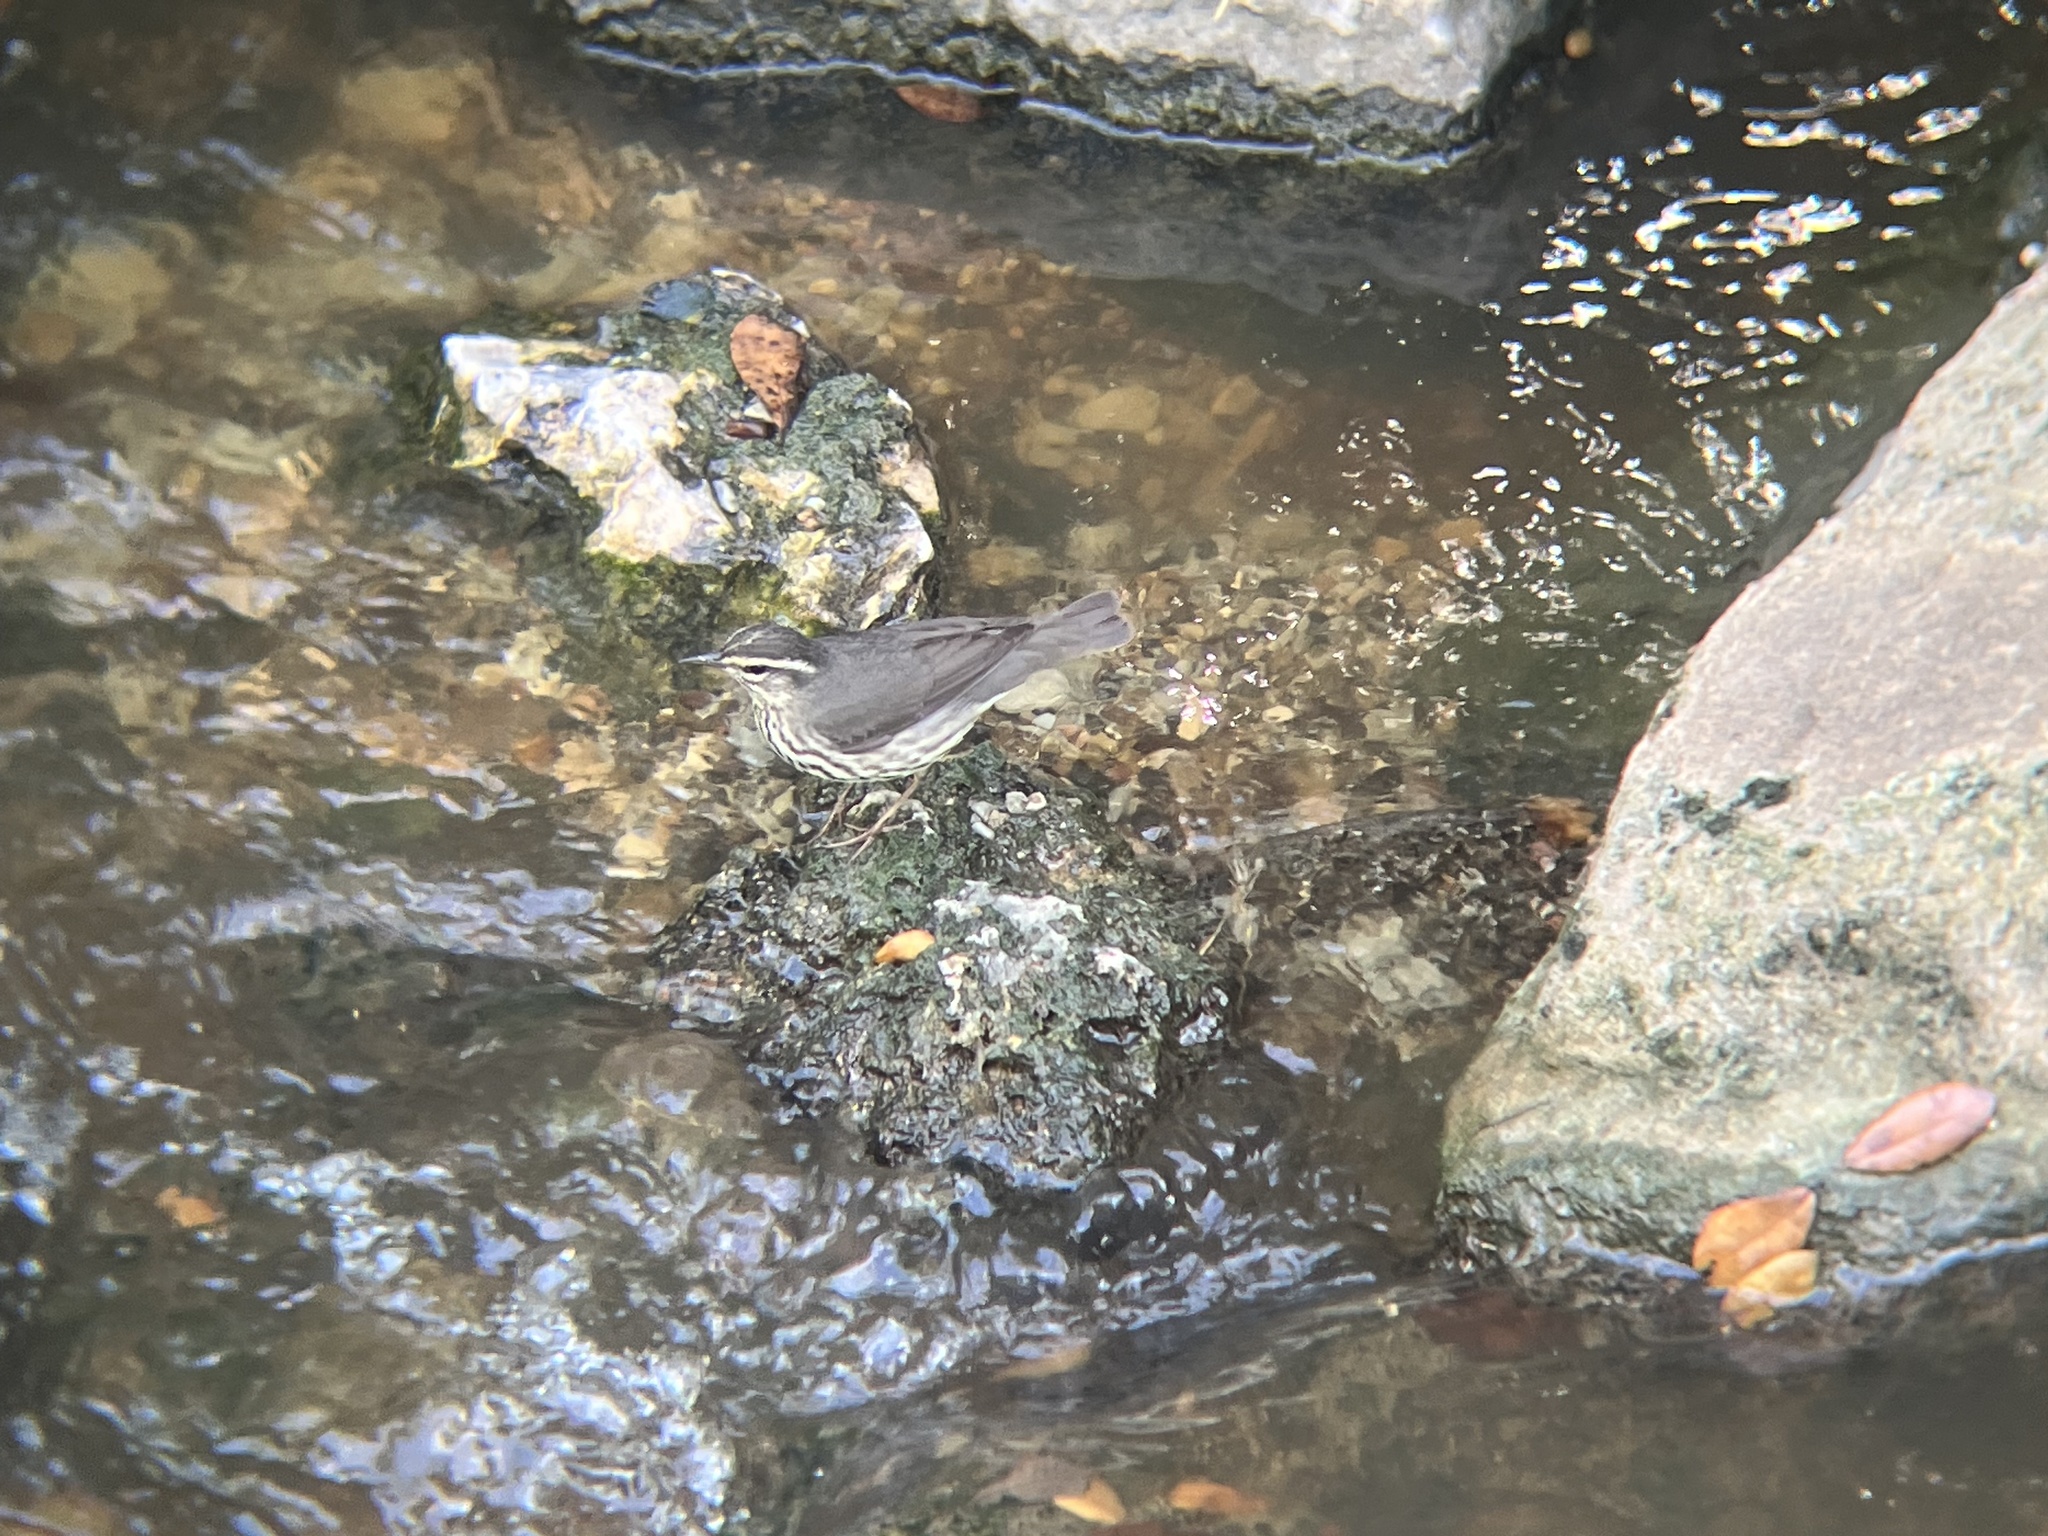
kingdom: Animalia
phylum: Chordata
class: Aves
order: Passeriformes
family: Parulidae
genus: Parkesia
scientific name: Parkesia noveboracensis
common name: Northern waterthrush
